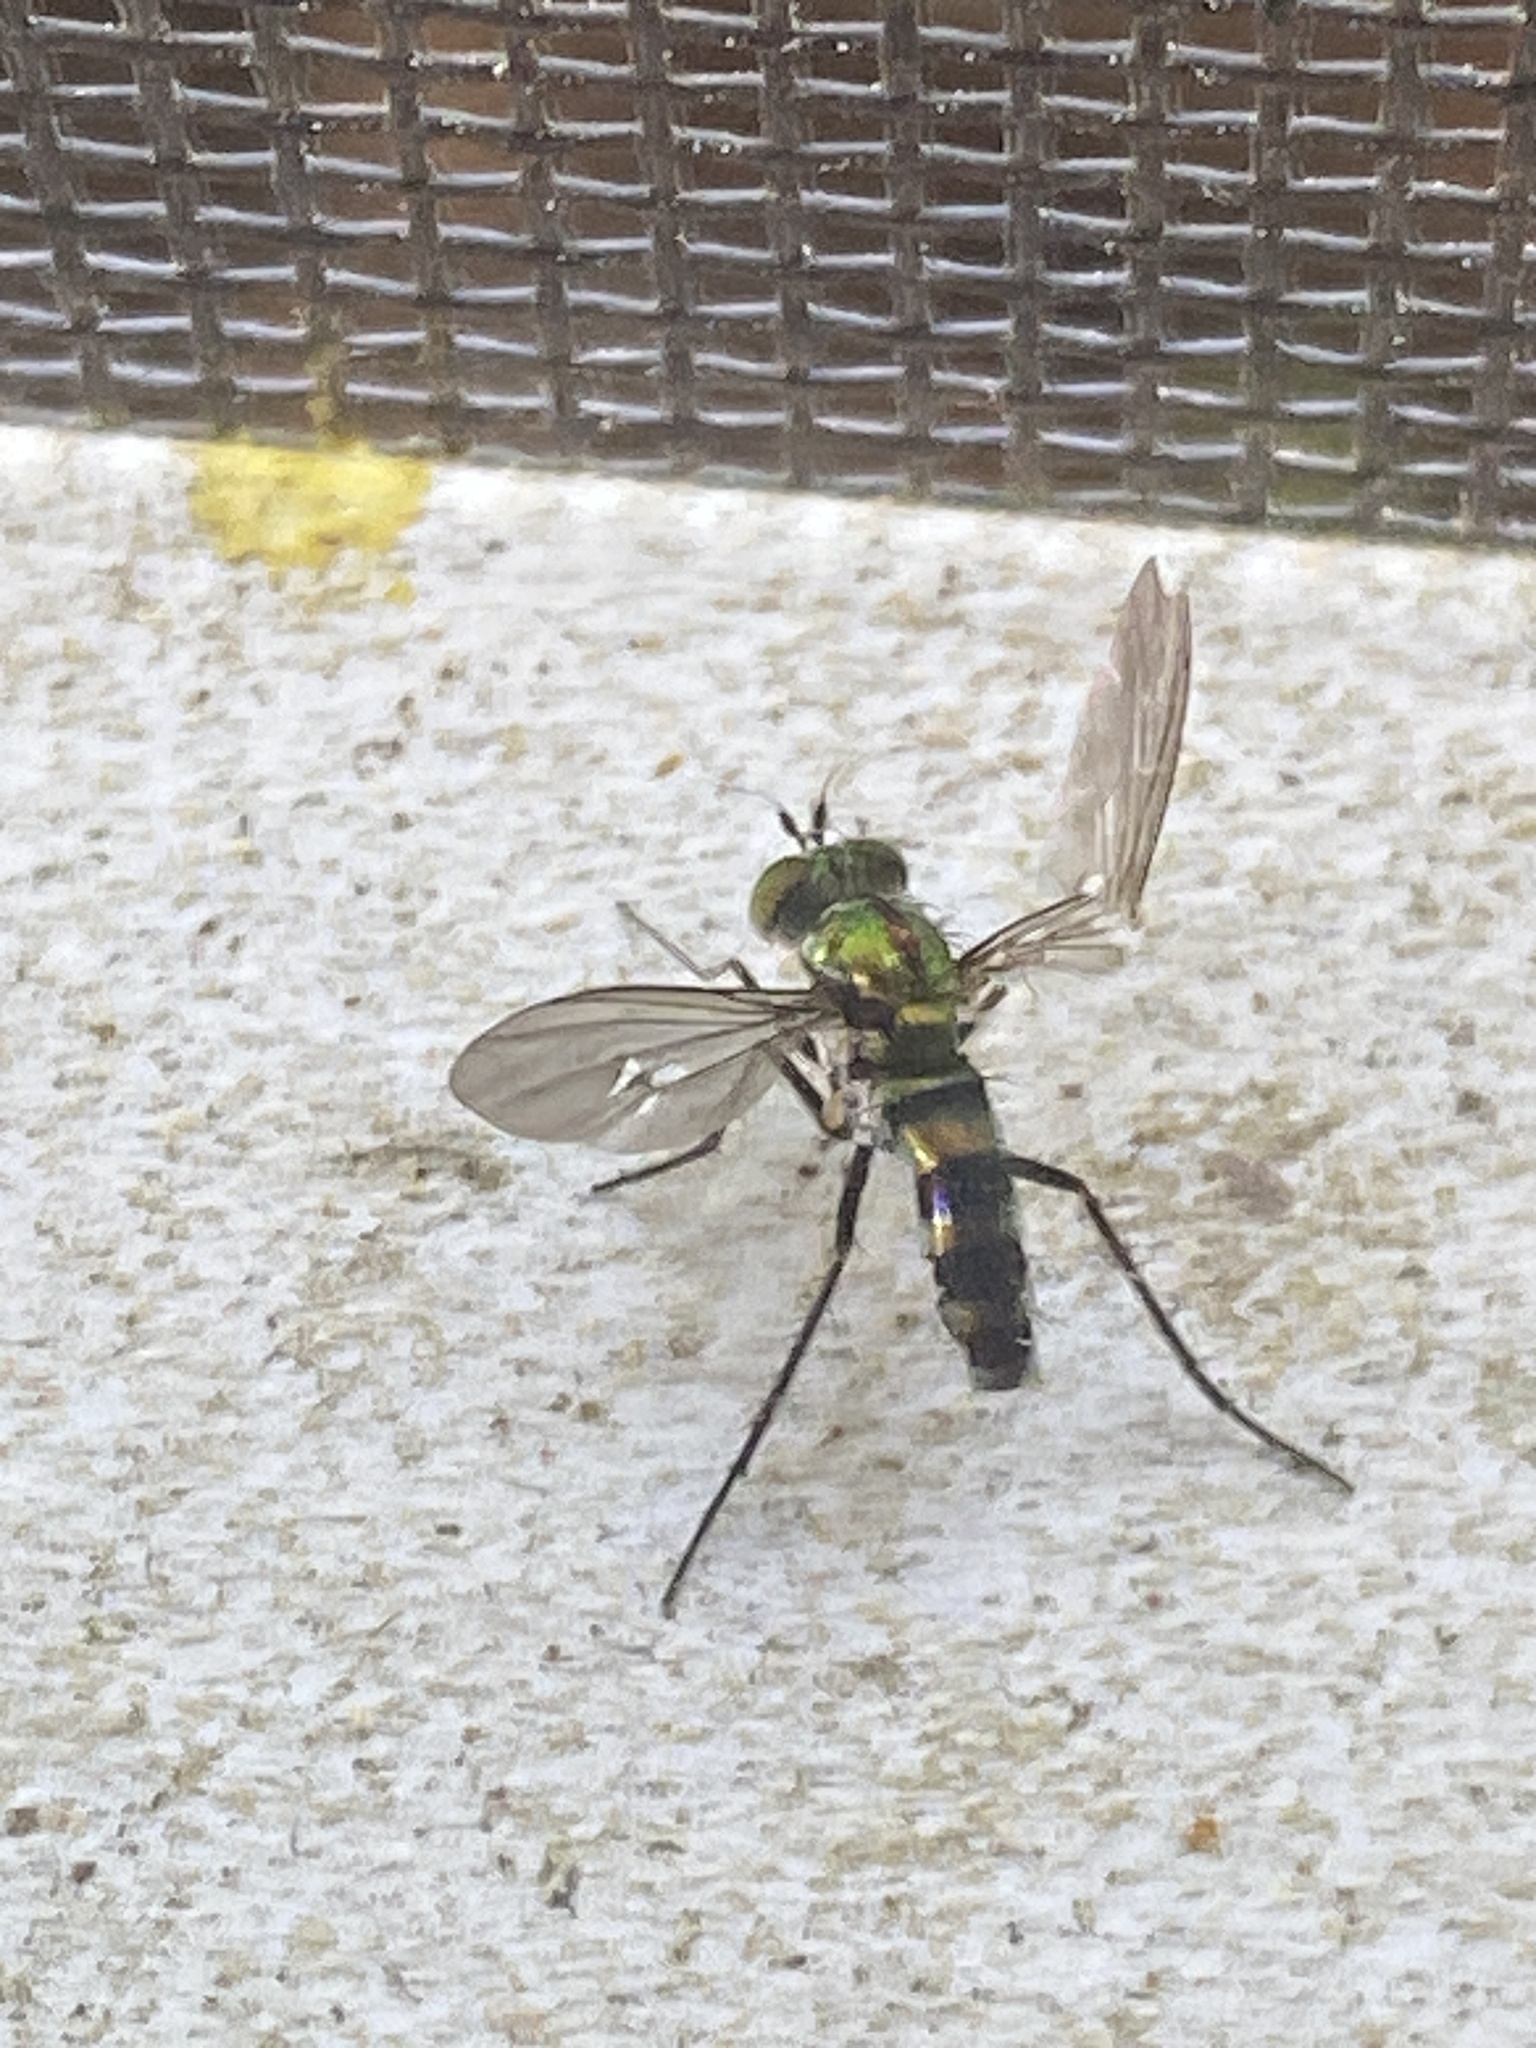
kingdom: Animalia
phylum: Arthropoda
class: Insecta
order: Diptera
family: Dolichopodidae
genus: Plagioneurus
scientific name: Plagioneurus univittatus
